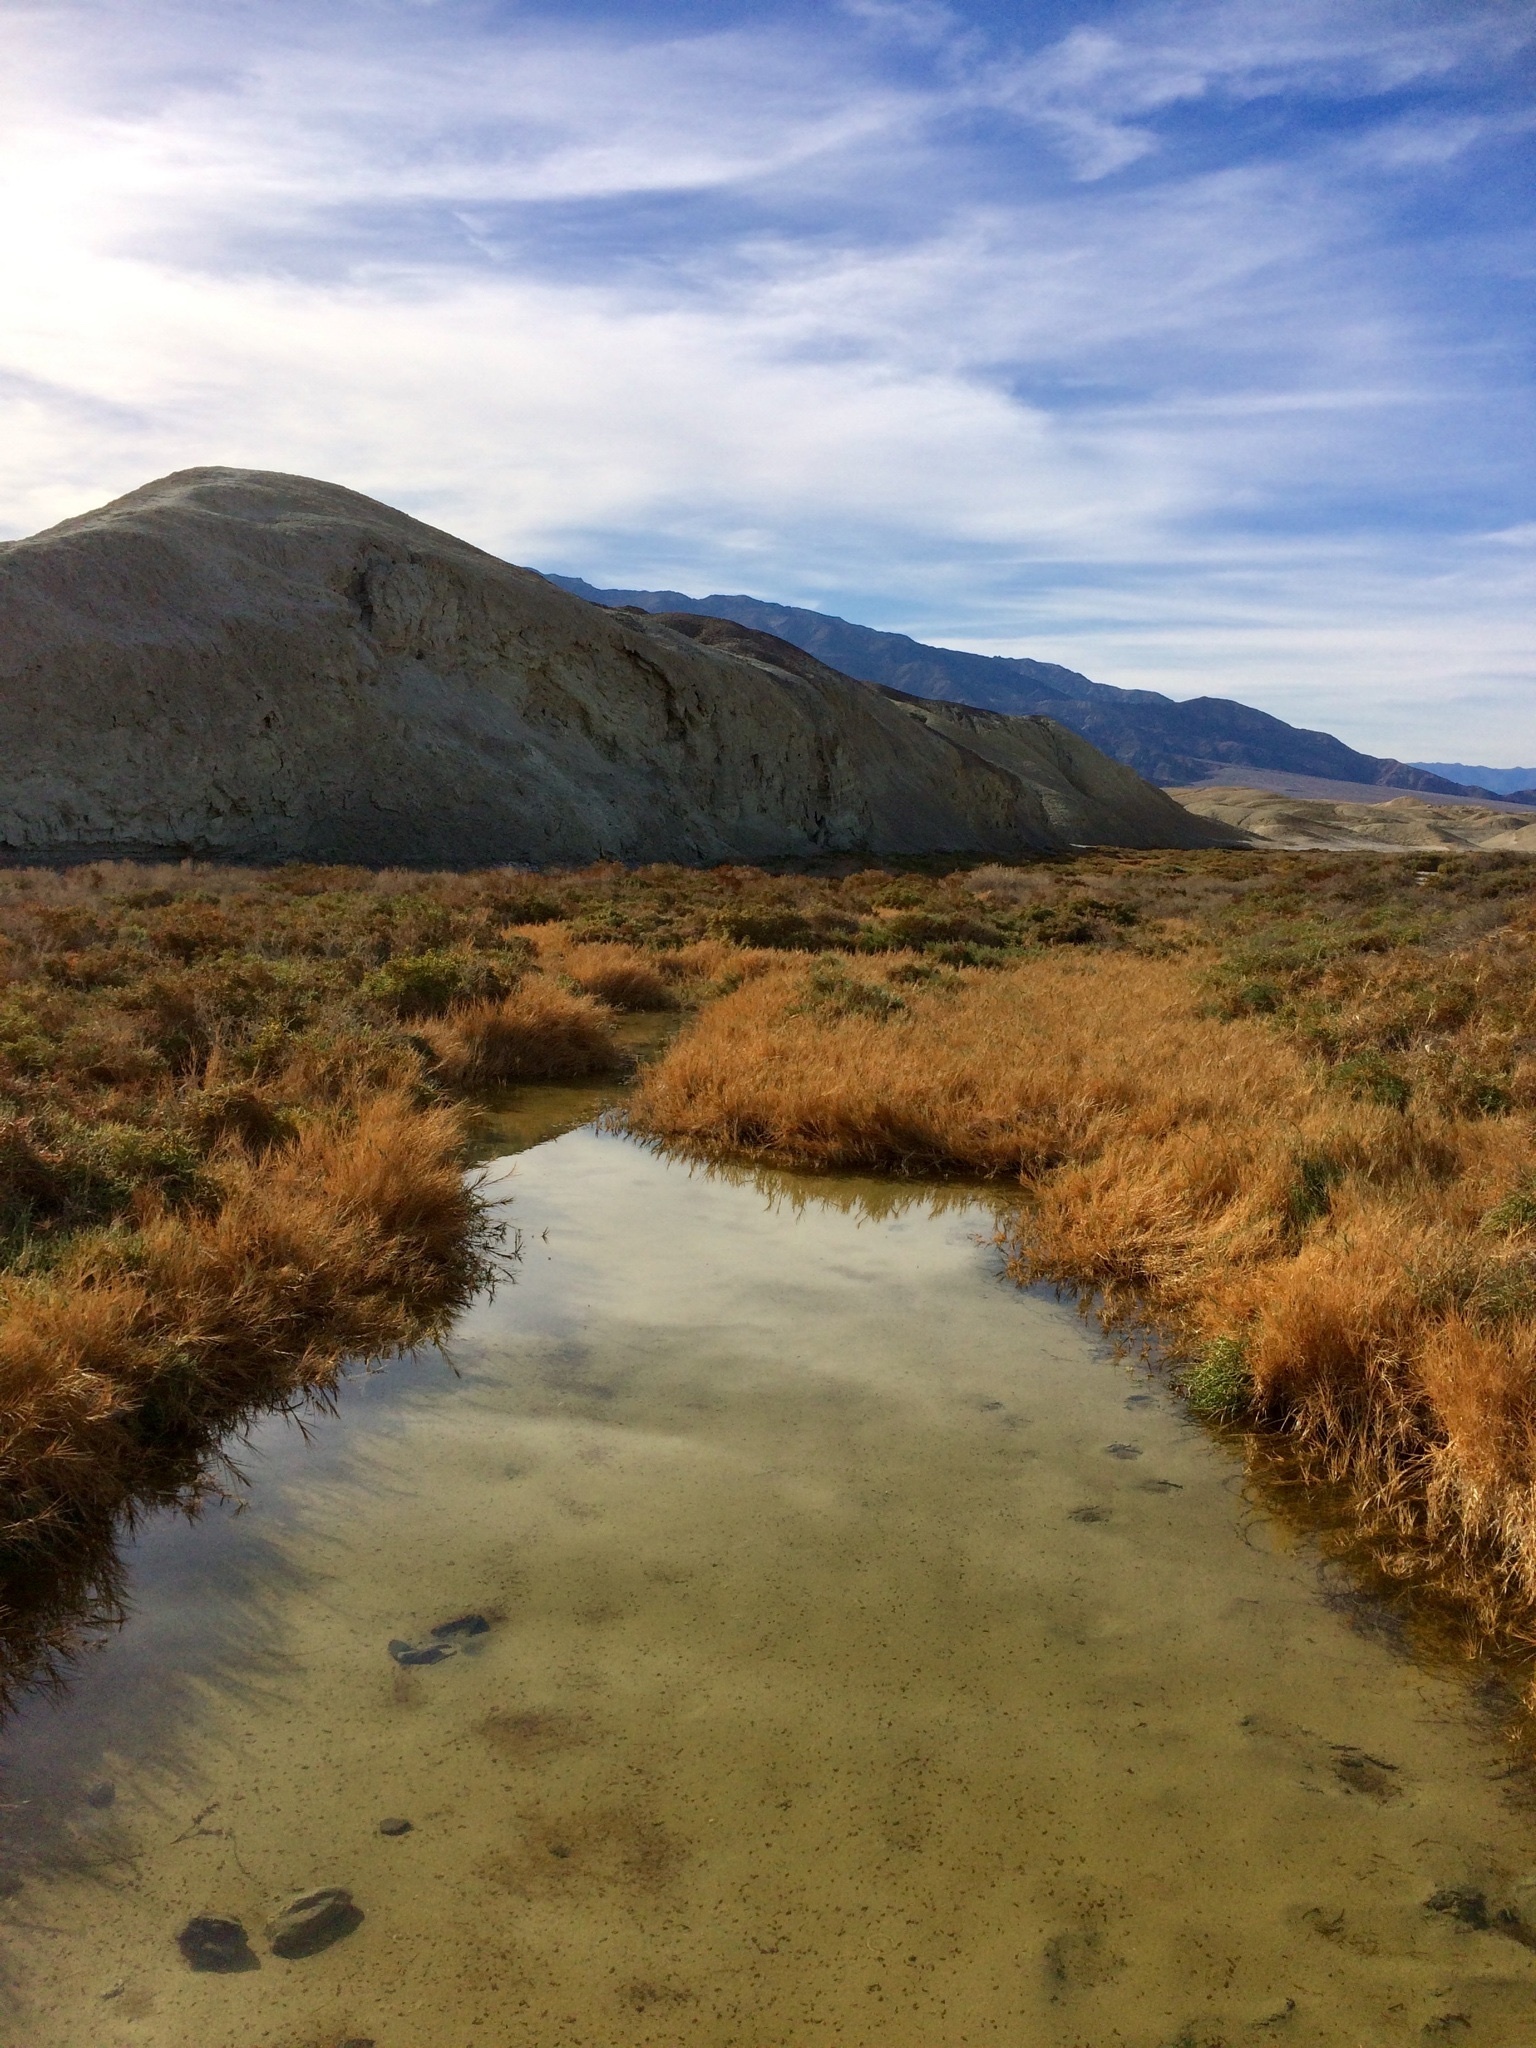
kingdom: Plantae
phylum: Tracheophyta
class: Liliopsida
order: Poales
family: Poaceae
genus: Distichlis
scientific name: Distichlis spicata
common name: Saltgrass
